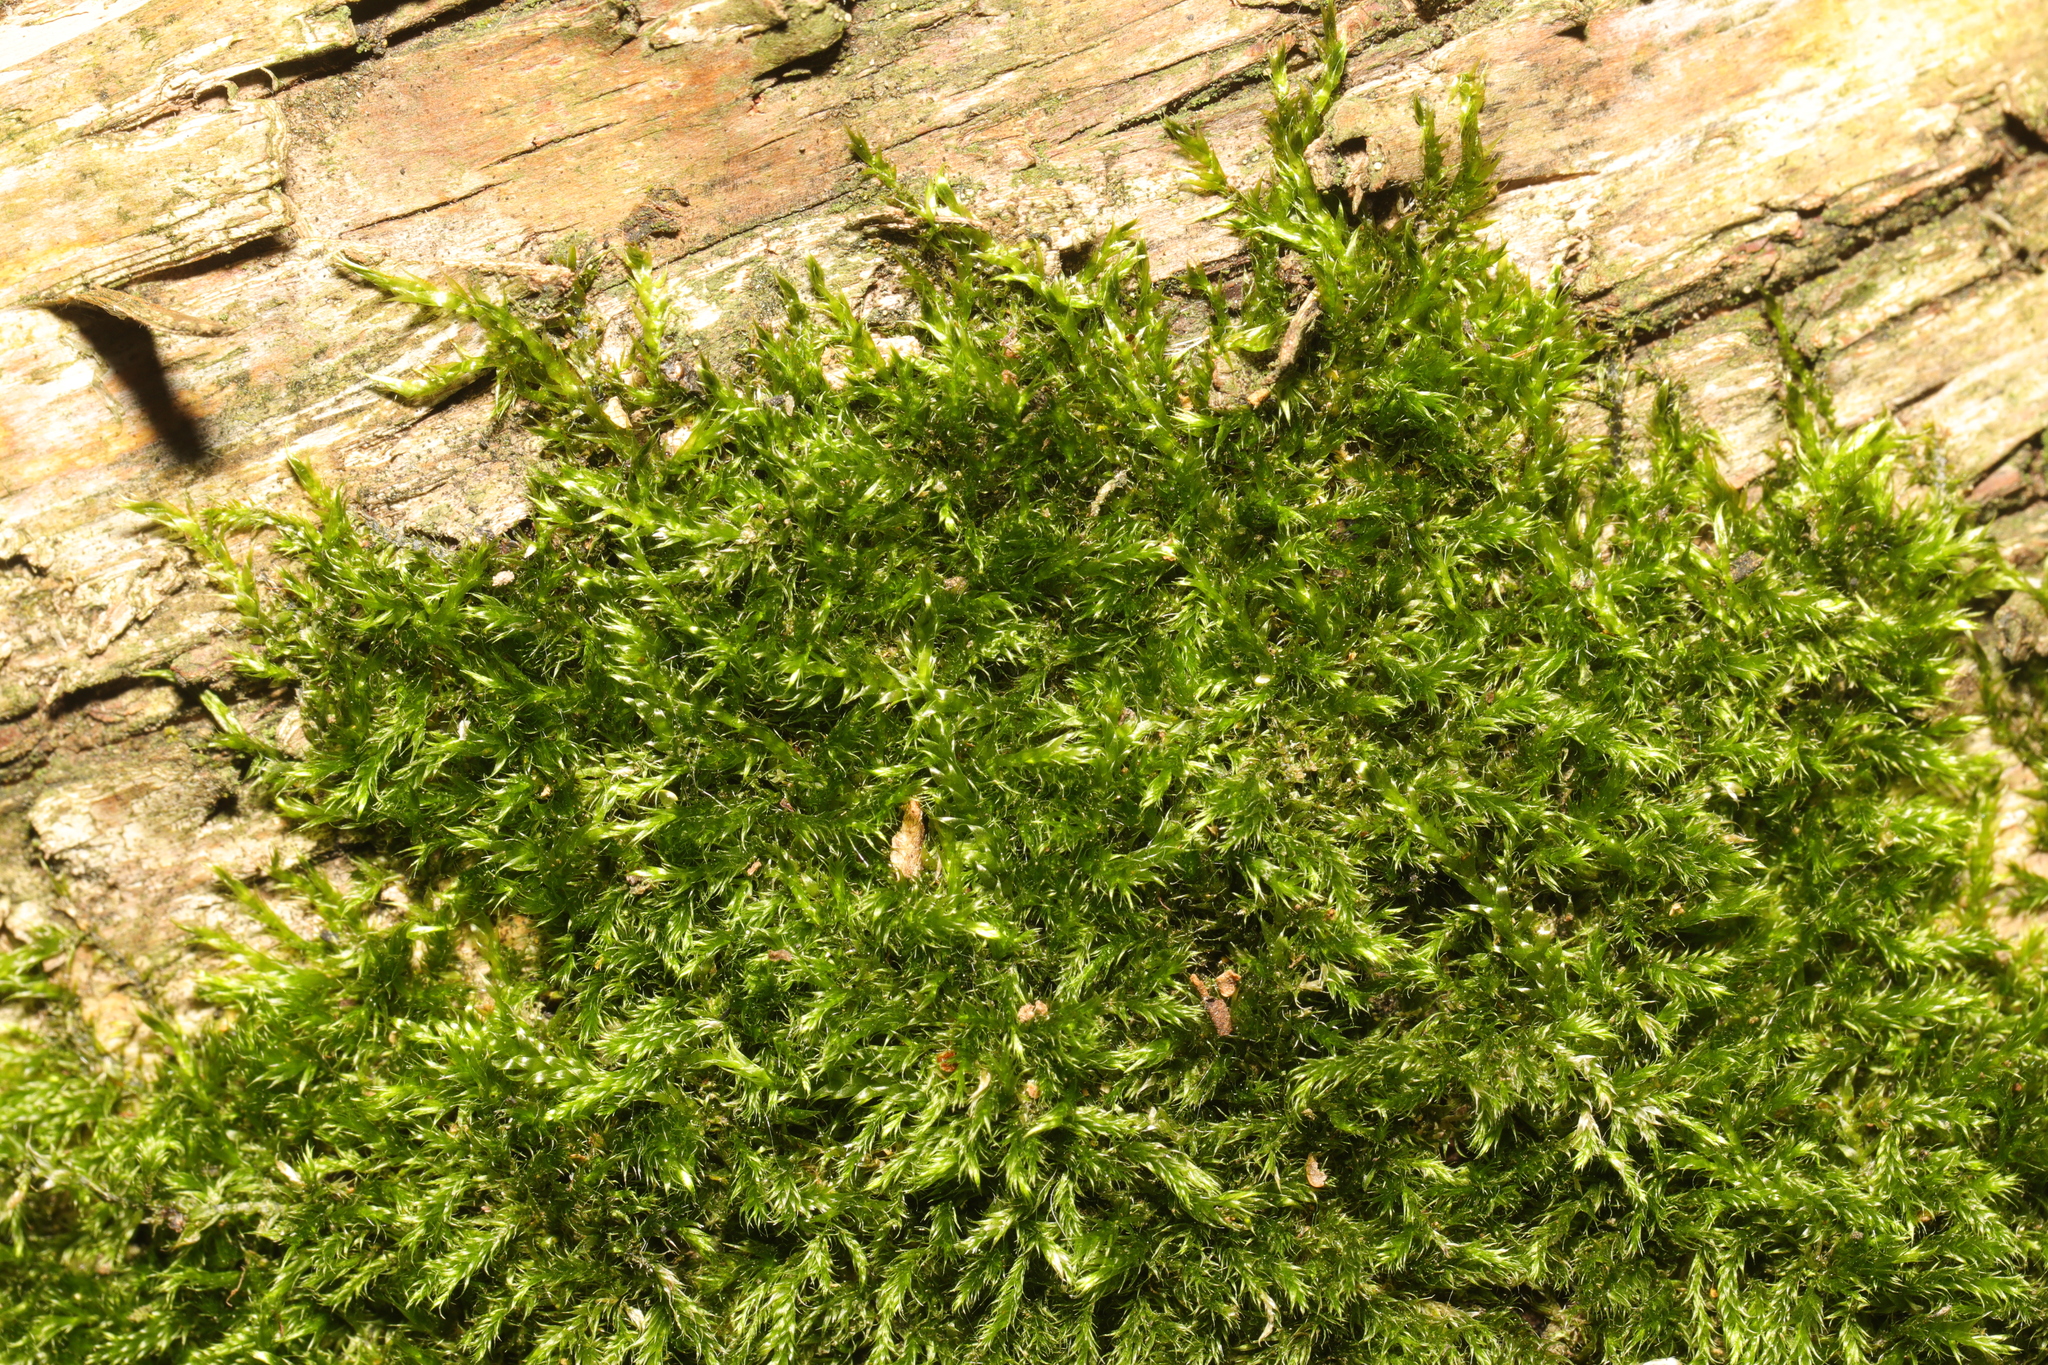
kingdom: Plantae
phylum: Bryophyta
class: Bryopsida
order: Hypnales
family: Hypnaceae
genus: Hypnum
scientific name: Hypnum cupressiforme
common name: Cypress-leaved plait-moss
